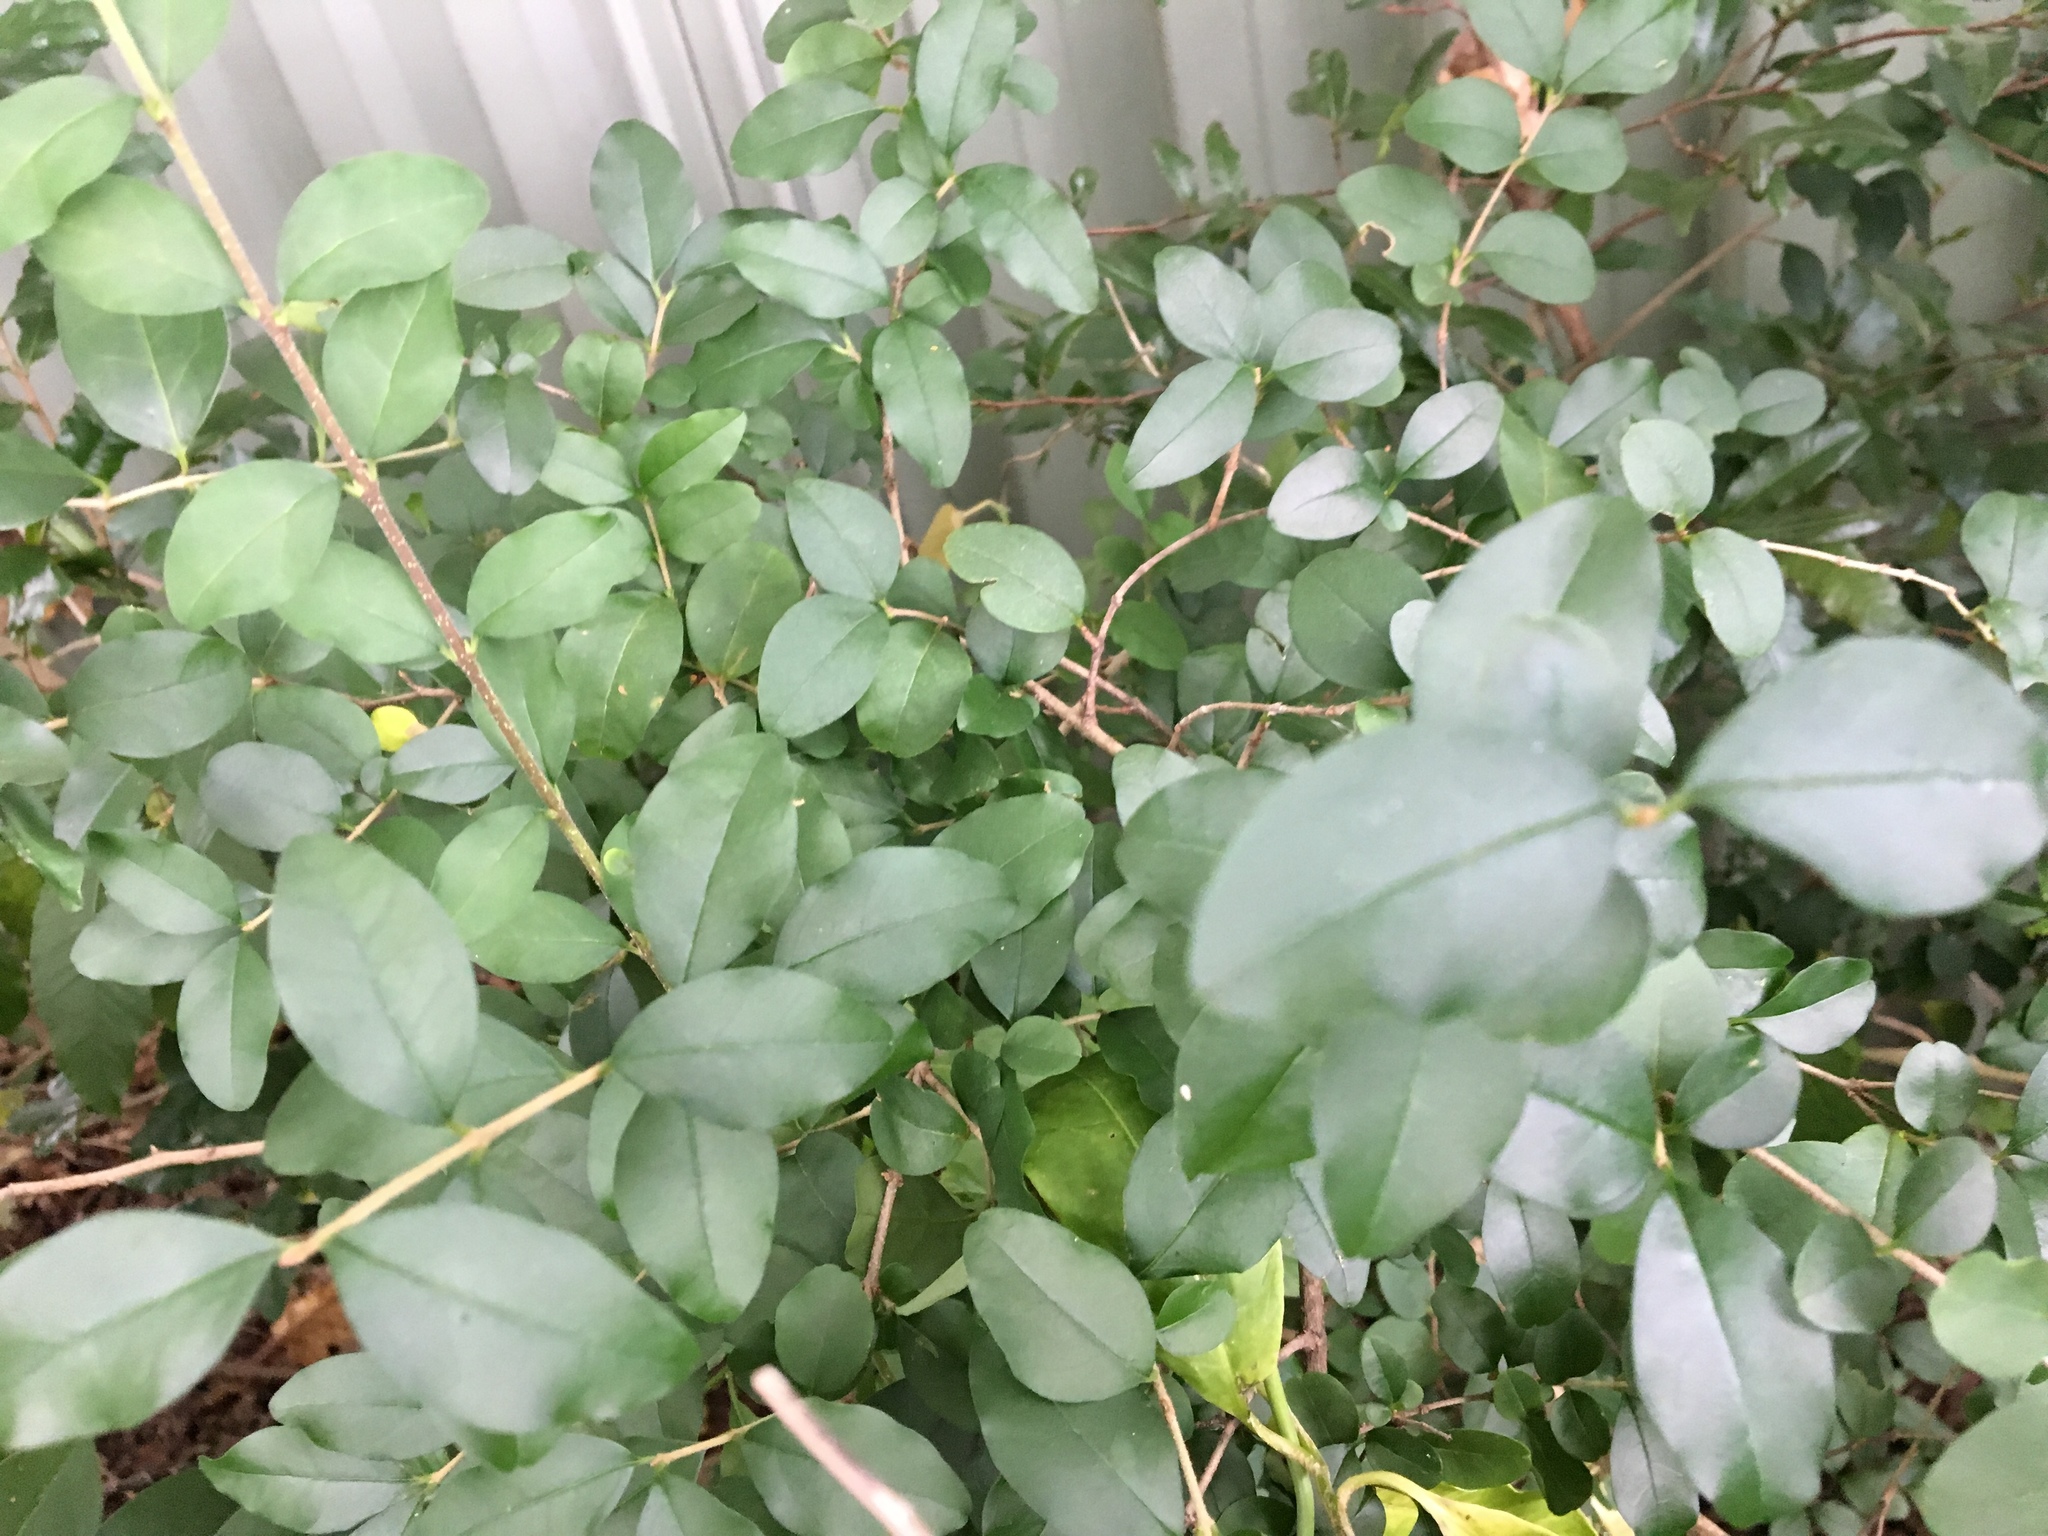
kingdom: Plantae
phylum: Tracheophyta
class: Magnoliopsida
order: Lamiales
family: Oleaceae
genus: Ligustrum
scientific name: Ligustrum sinense
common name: Chinese privet
